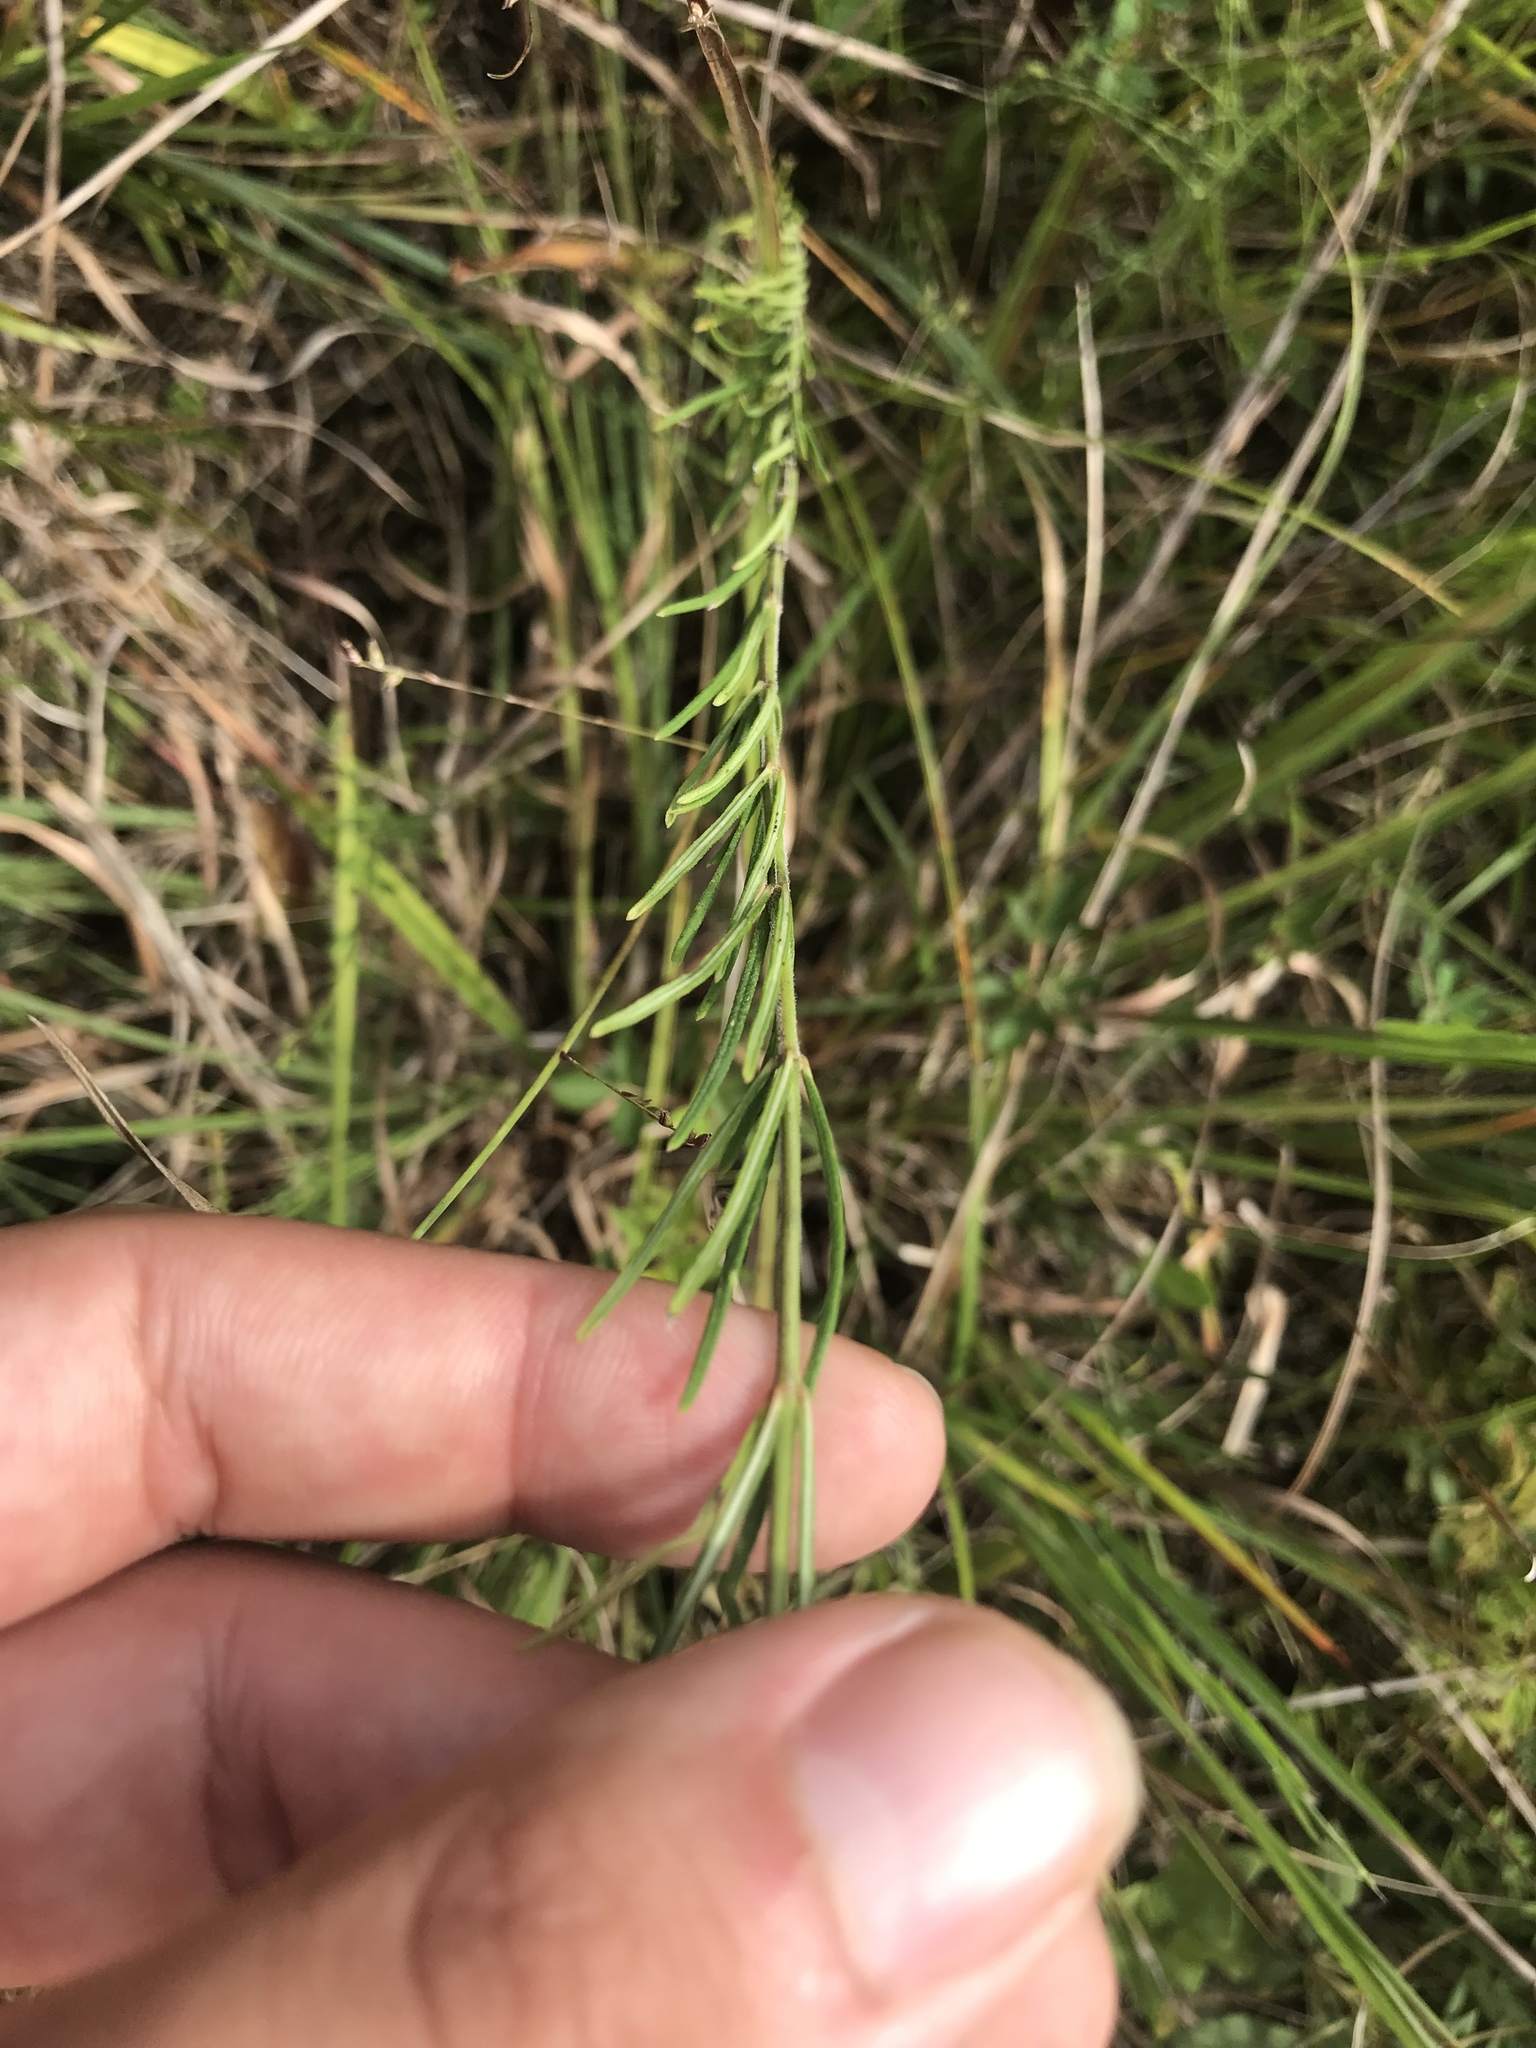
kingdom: Plantae
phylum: Tracheophyta
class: Magnoliopsida
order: Gentianales
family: Apocynaceae
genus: Asclepias
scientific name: Asclepias verticillata
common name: Eastern whorled milkweed
